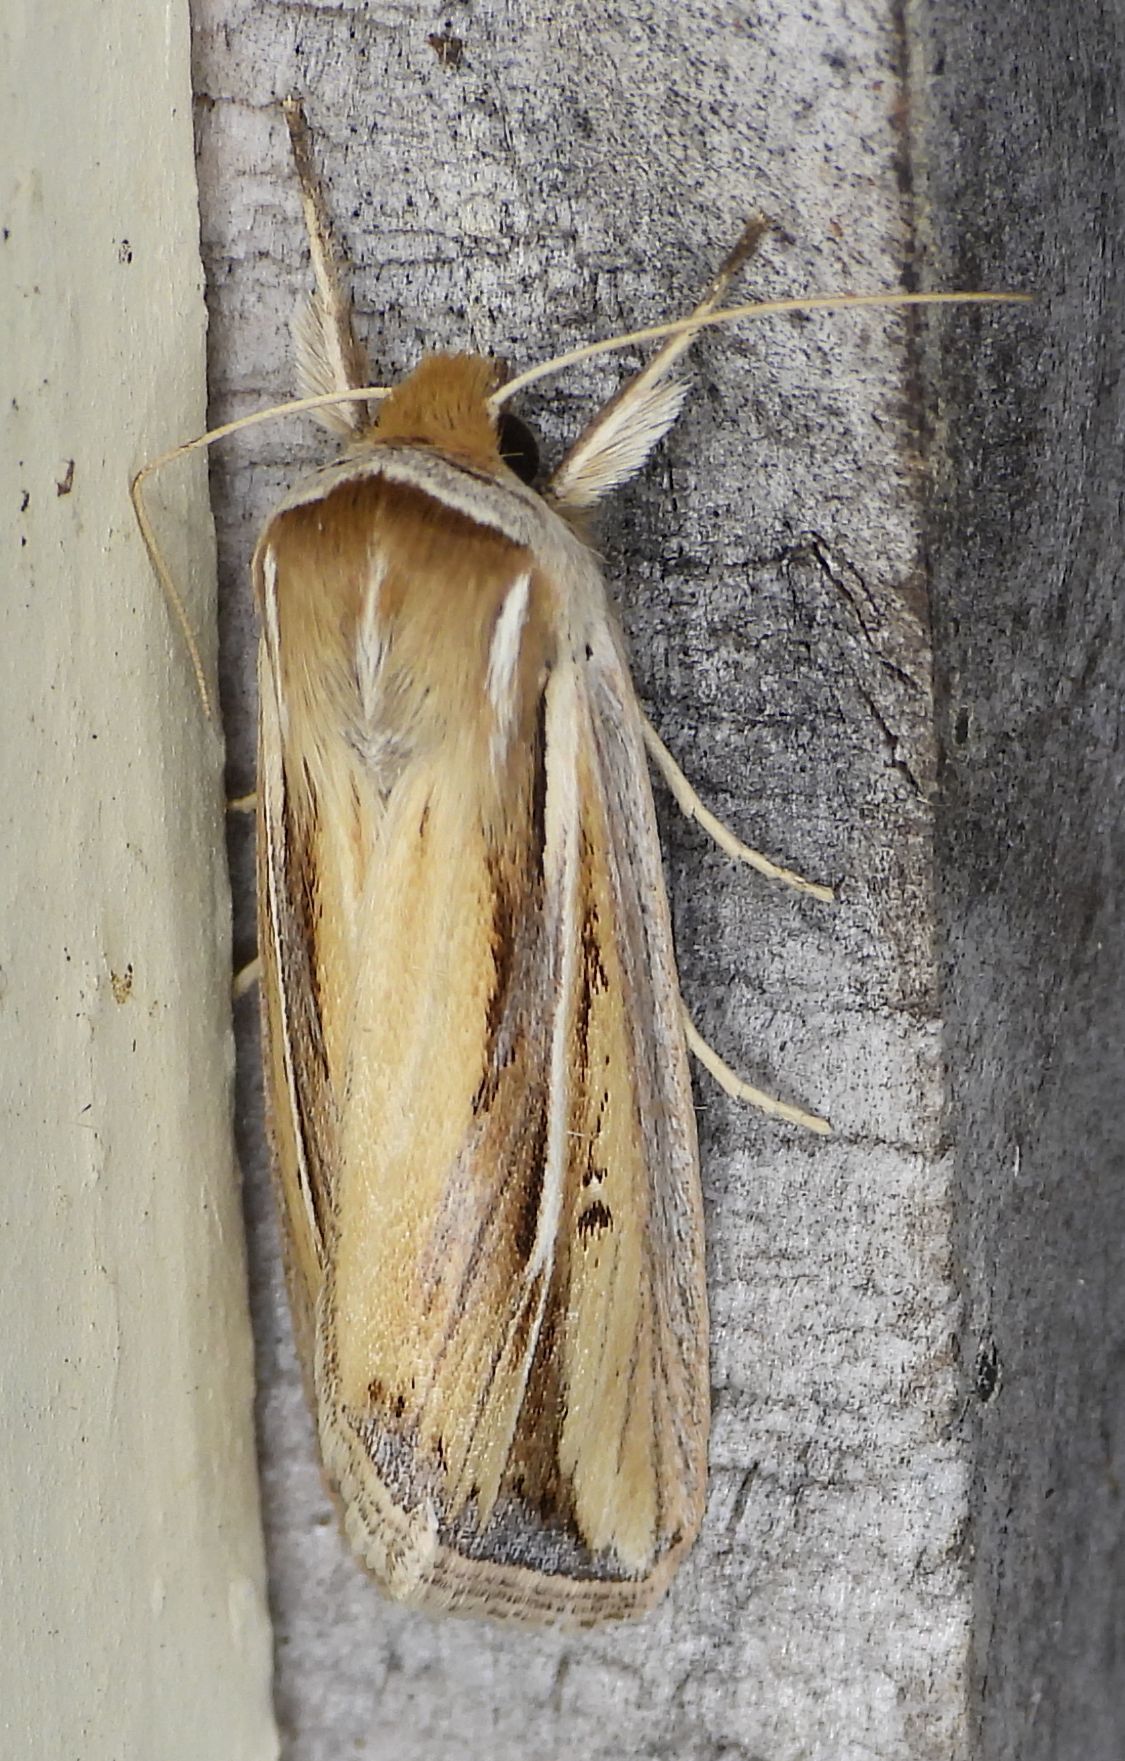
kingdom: Animalia
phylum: Arthropoda
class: Insecta
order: Lepidoptera
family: Noctuidae
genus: Dargida
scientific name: Dargida diffusa
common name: Wheat head armyworm
